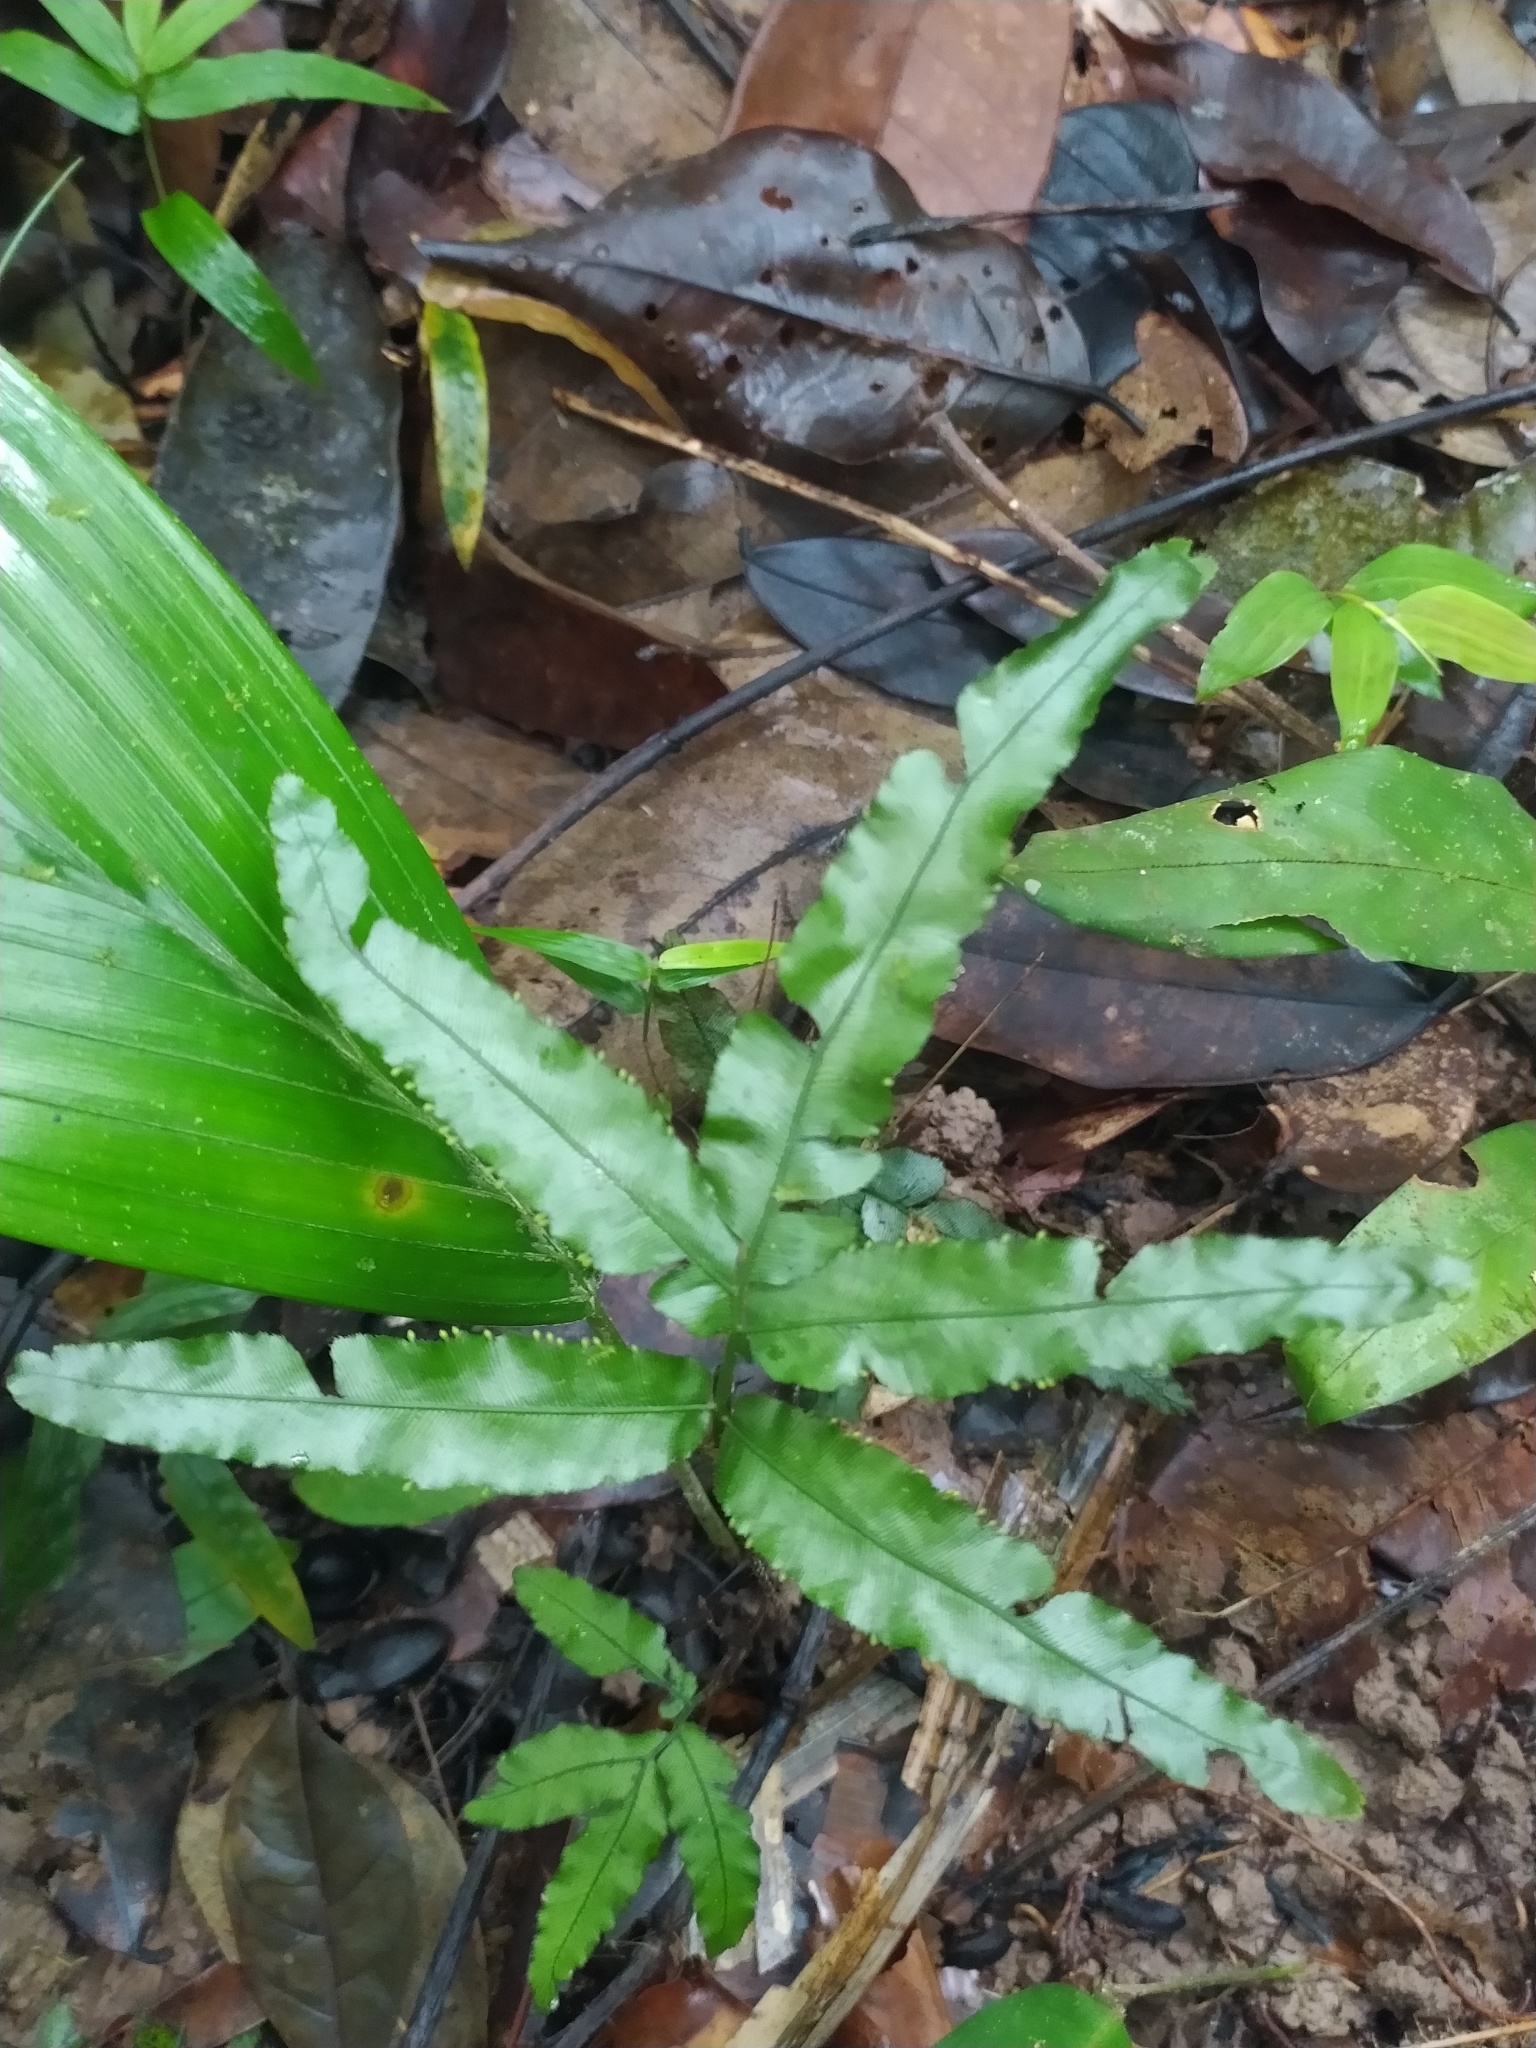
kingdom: Plantae
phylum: Tracheophyta
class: Polypodiopsida
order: Hymenophyllales
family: Hymenophyllaceae
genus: Trichomanes
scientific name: Trichomanes pinnatum
